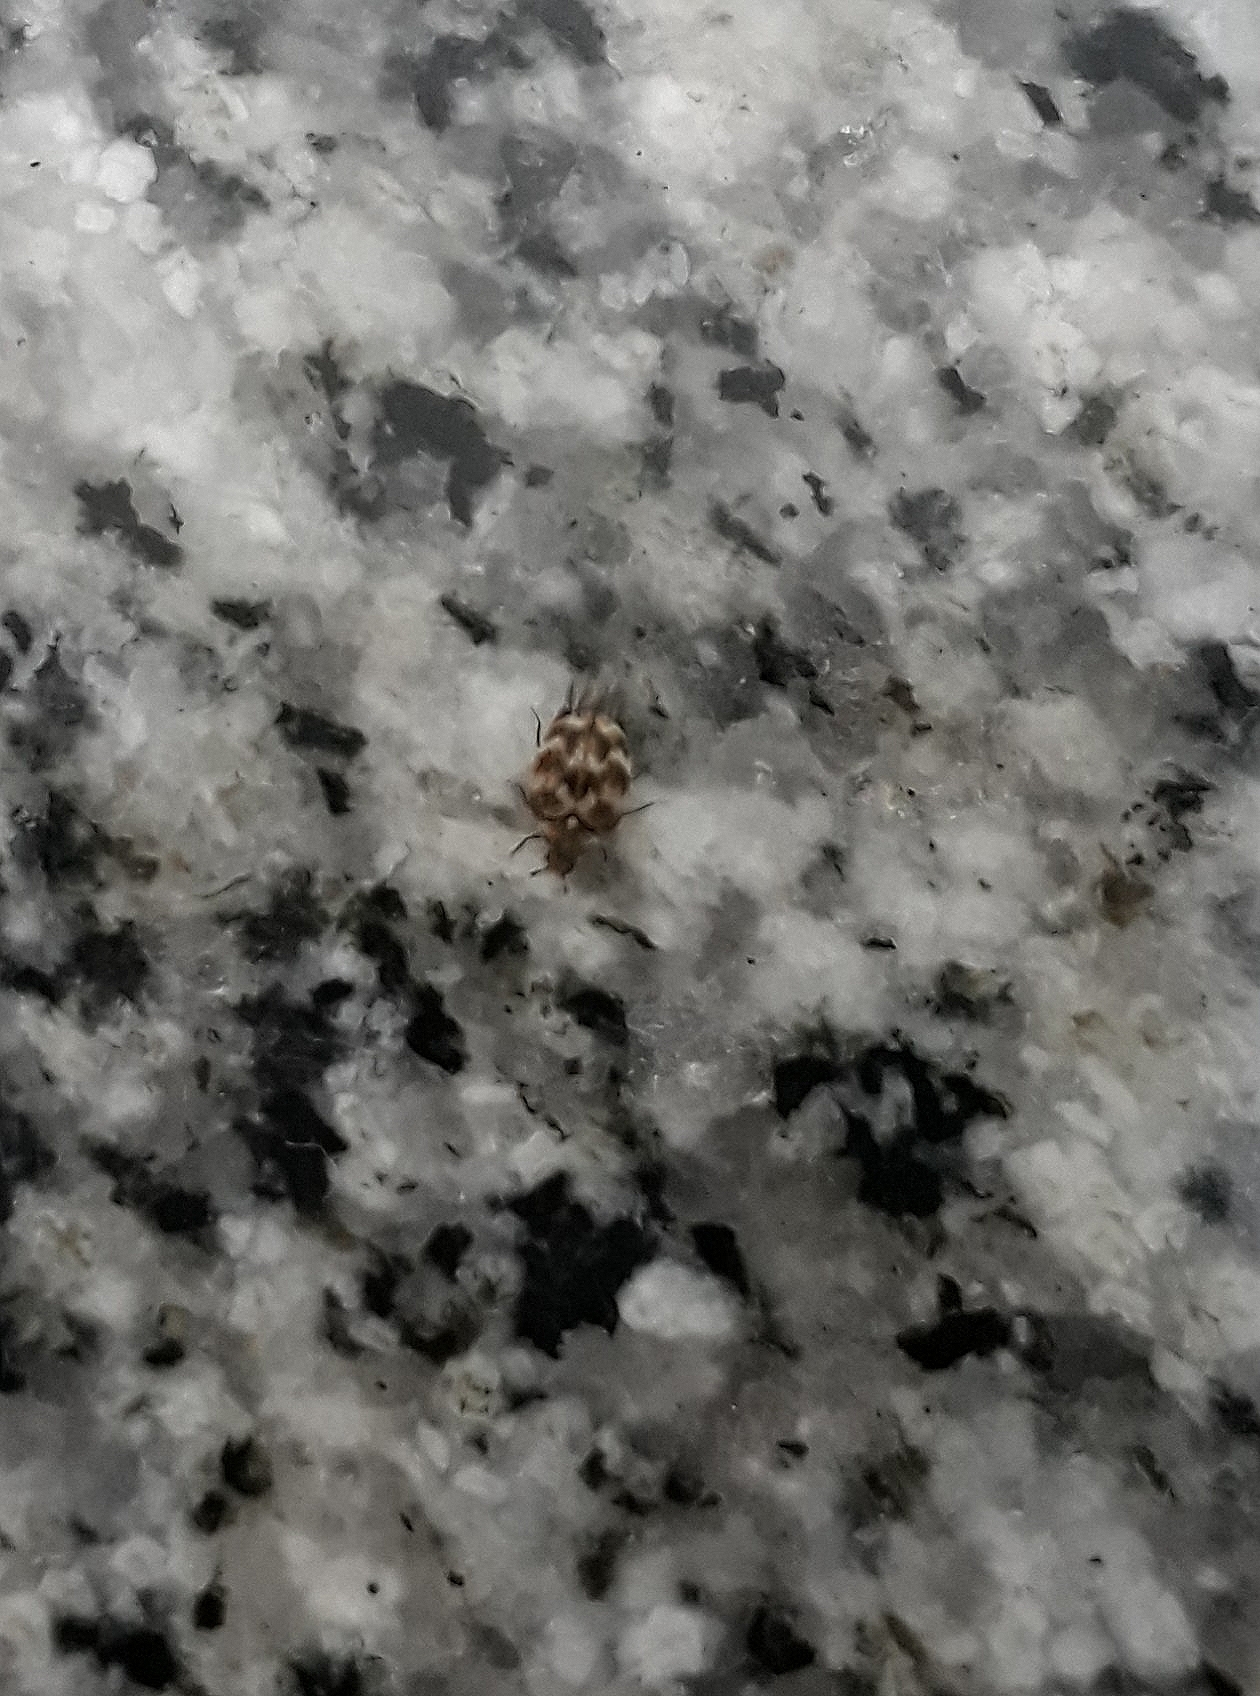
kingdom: Animalia
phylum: Arthropoda
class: Insecta
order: Coleoptera
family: Dermestidae
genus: Anthrenus
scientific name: Anthrenus verbasci
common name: Varied carpet beetle
